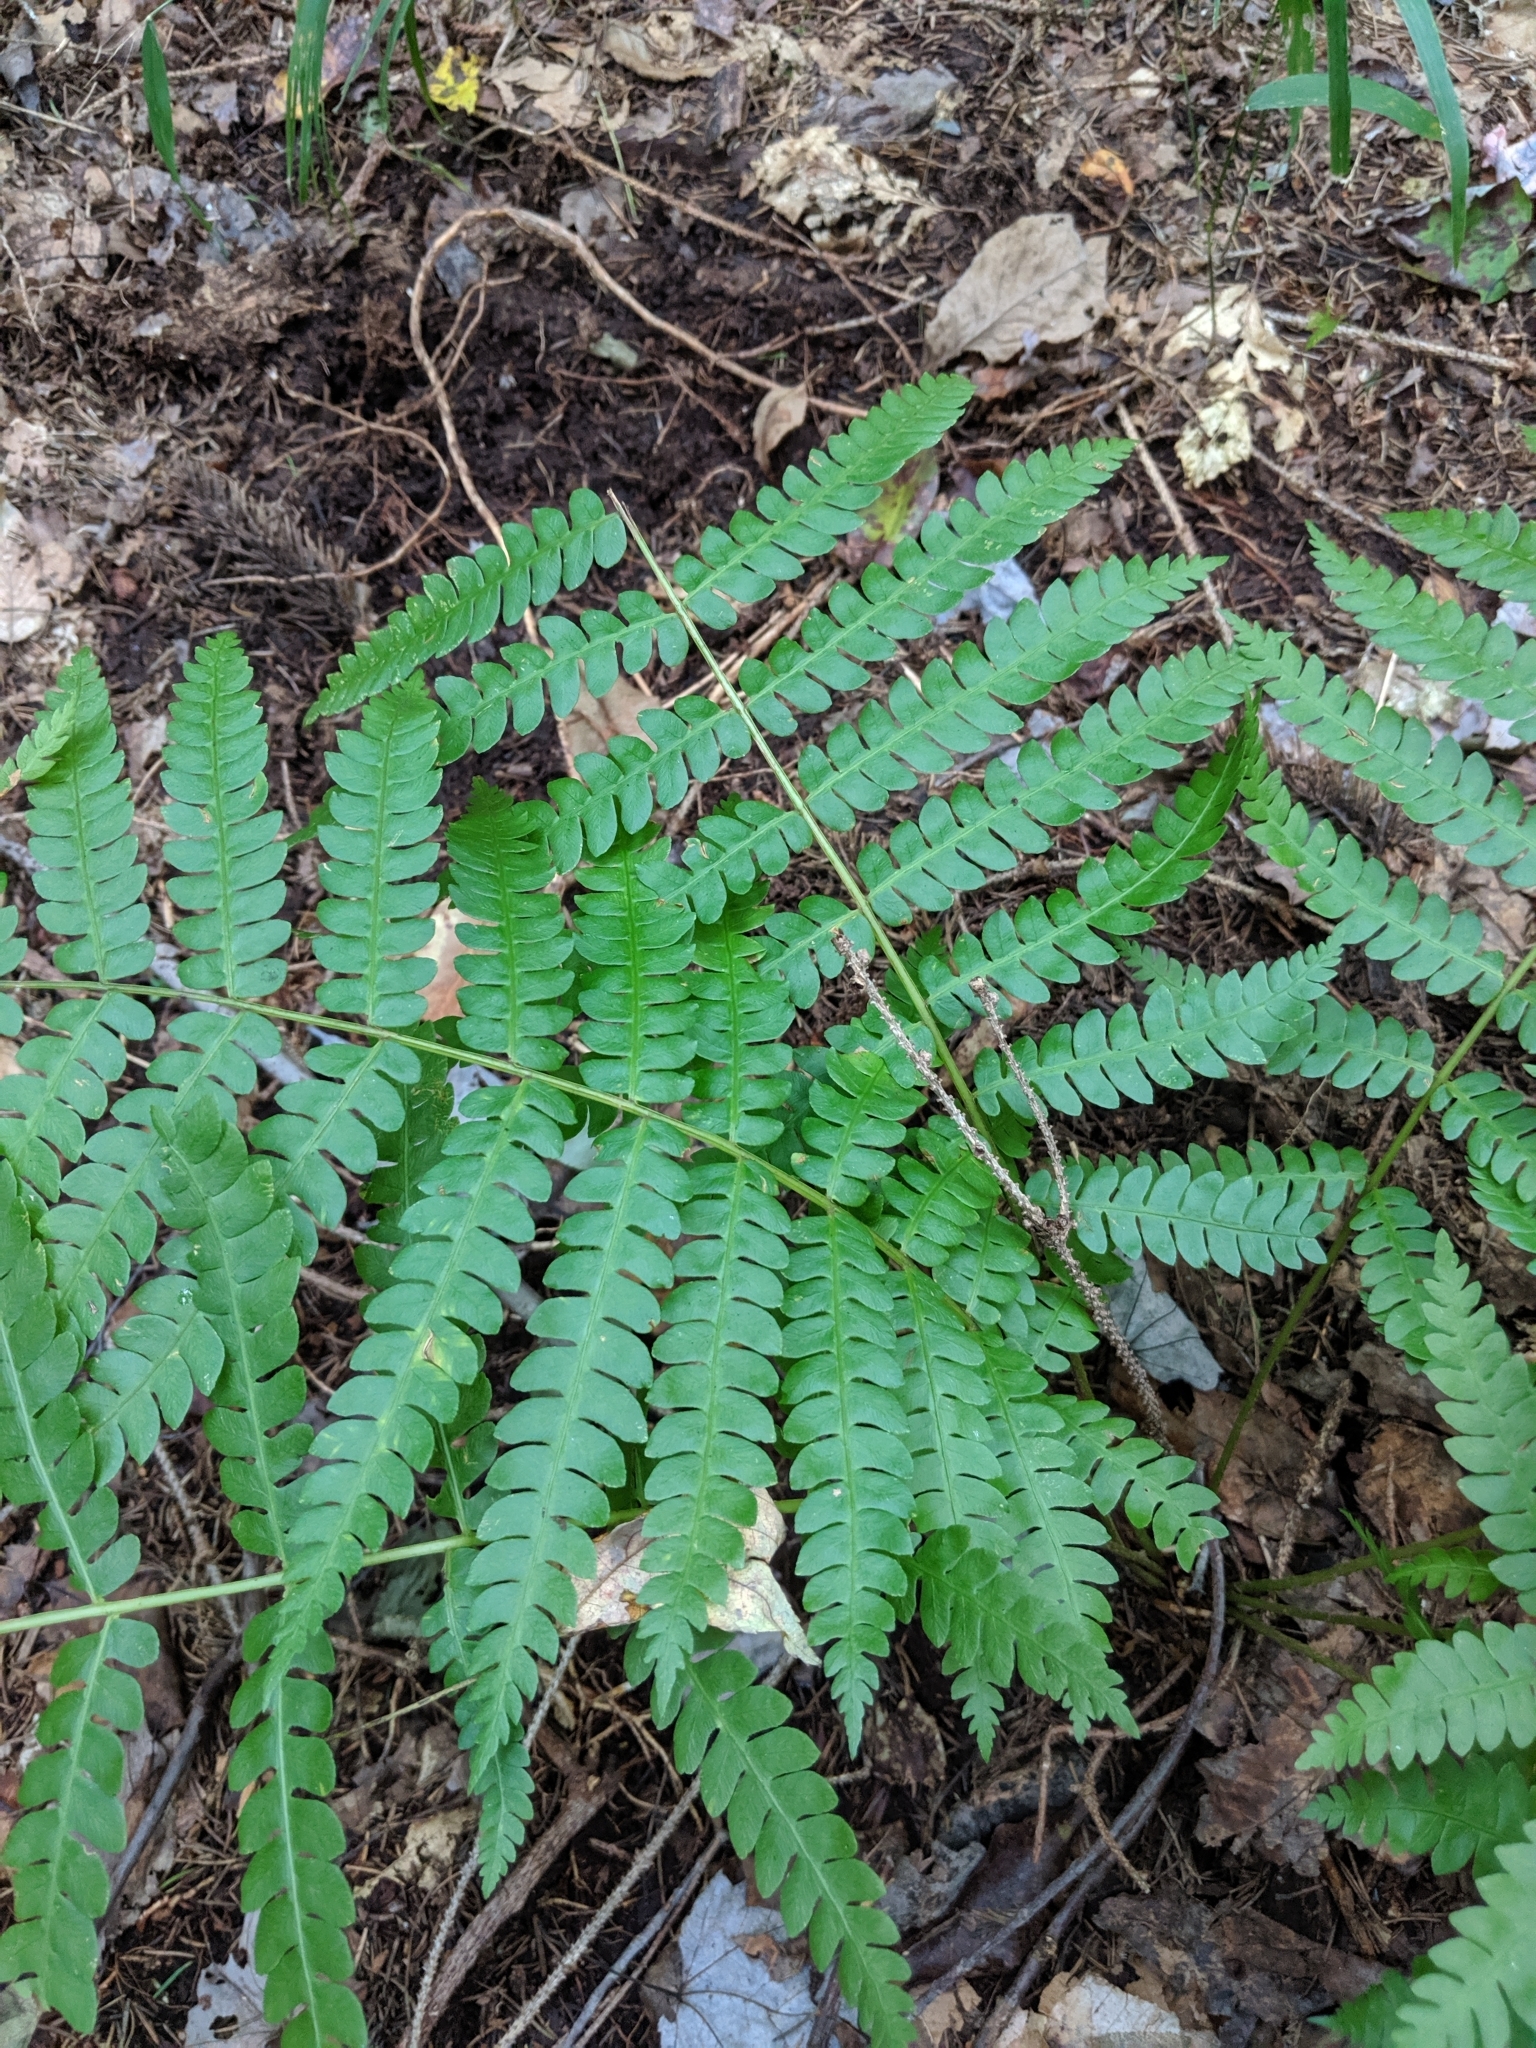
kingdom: Plantae
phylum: Tracheophyta
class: Polypodiopsida
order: Osmundales
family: Osmundaceae
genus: Osmundastrum
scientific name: Osmundastrum cinnamomeum
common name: Cinnamon fern
